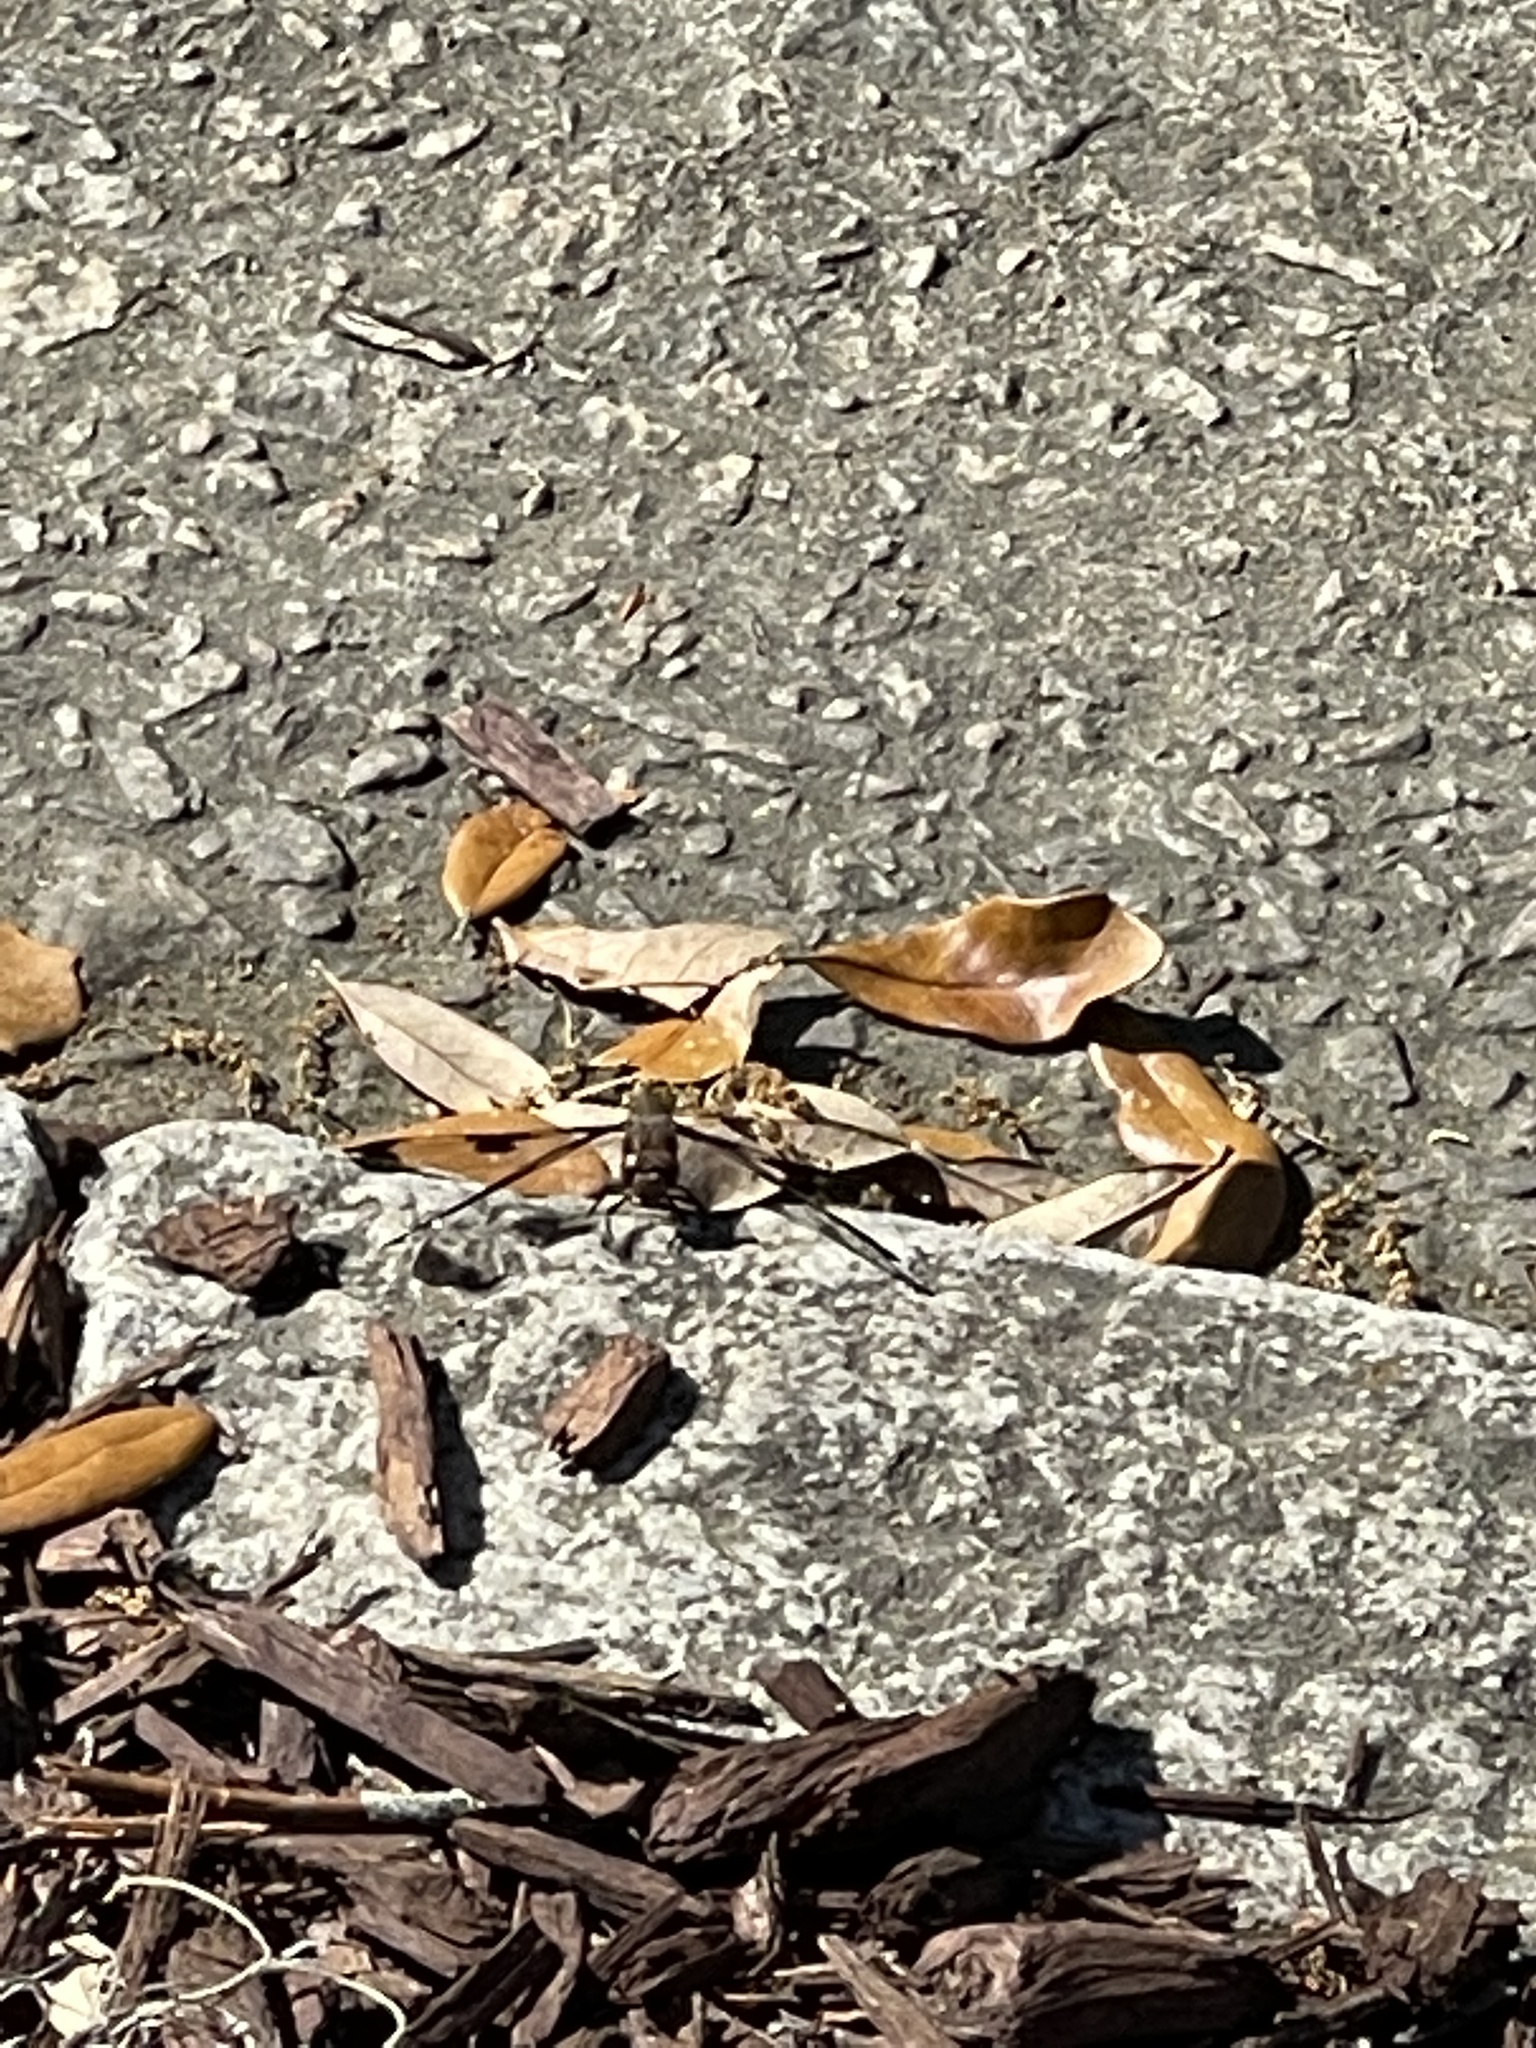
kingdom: Animalia
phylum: Arthropoda
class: Insecta
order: Odonata
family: Libellulidae
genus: Plathemis
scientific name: Plathemis lydia
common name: Common whitetail
